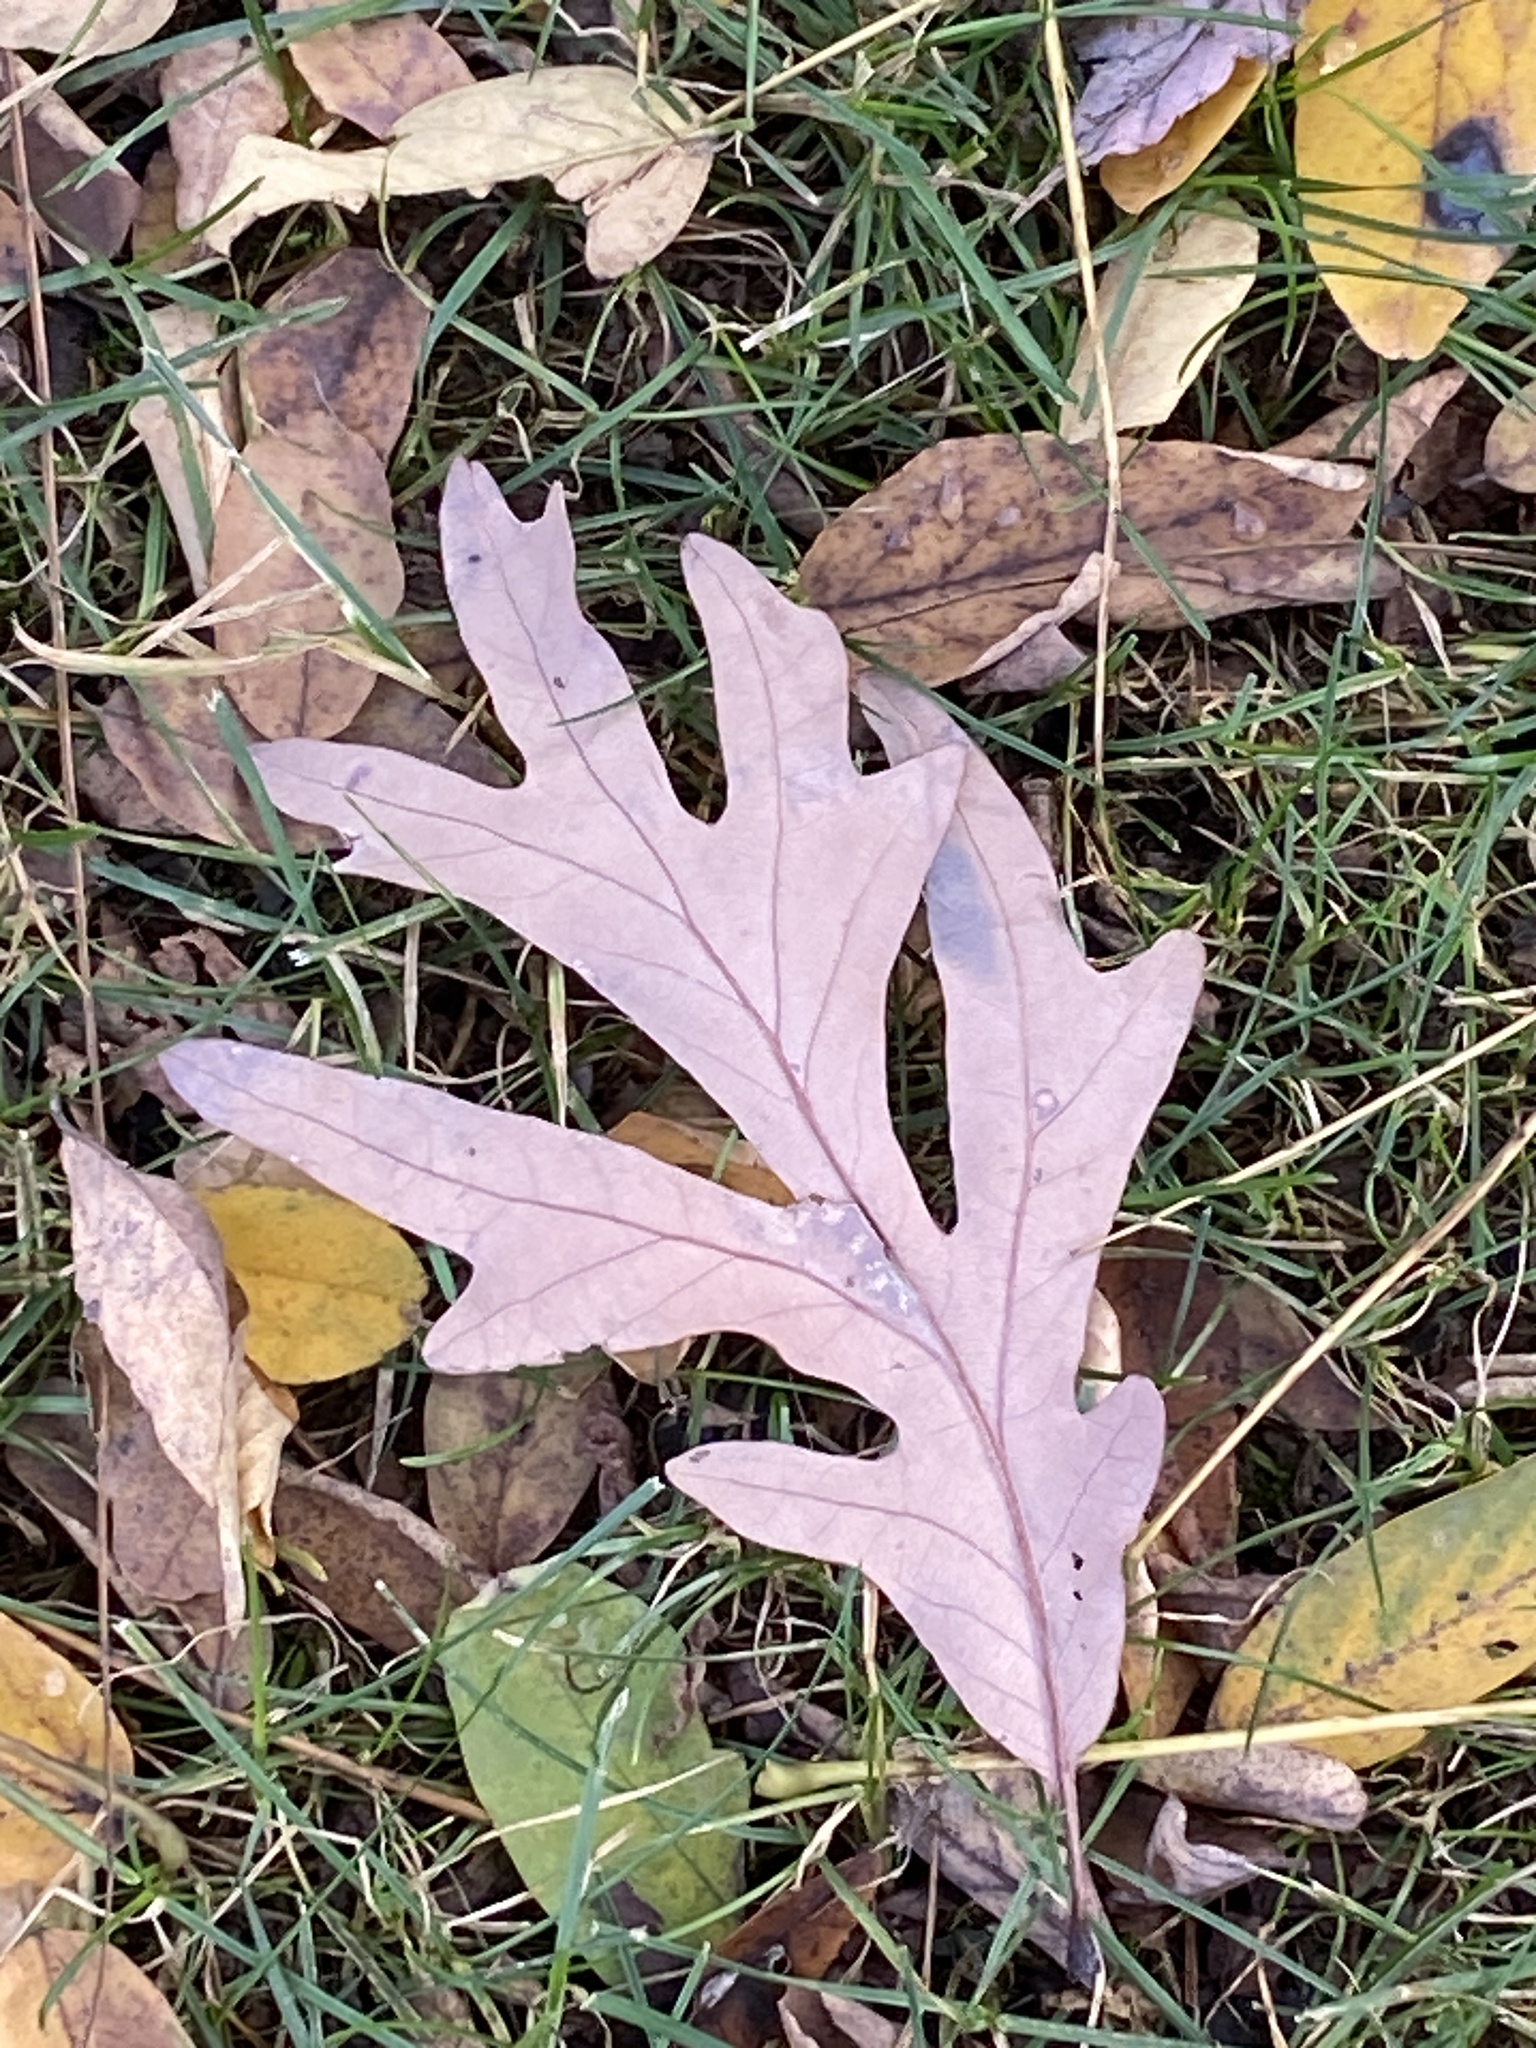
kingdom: Plantae
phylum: Tracheophyta
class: Magnoliopsida
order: Fagales
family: Fagaceae
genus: Quercus
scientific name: Quercus alba
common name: White oak
